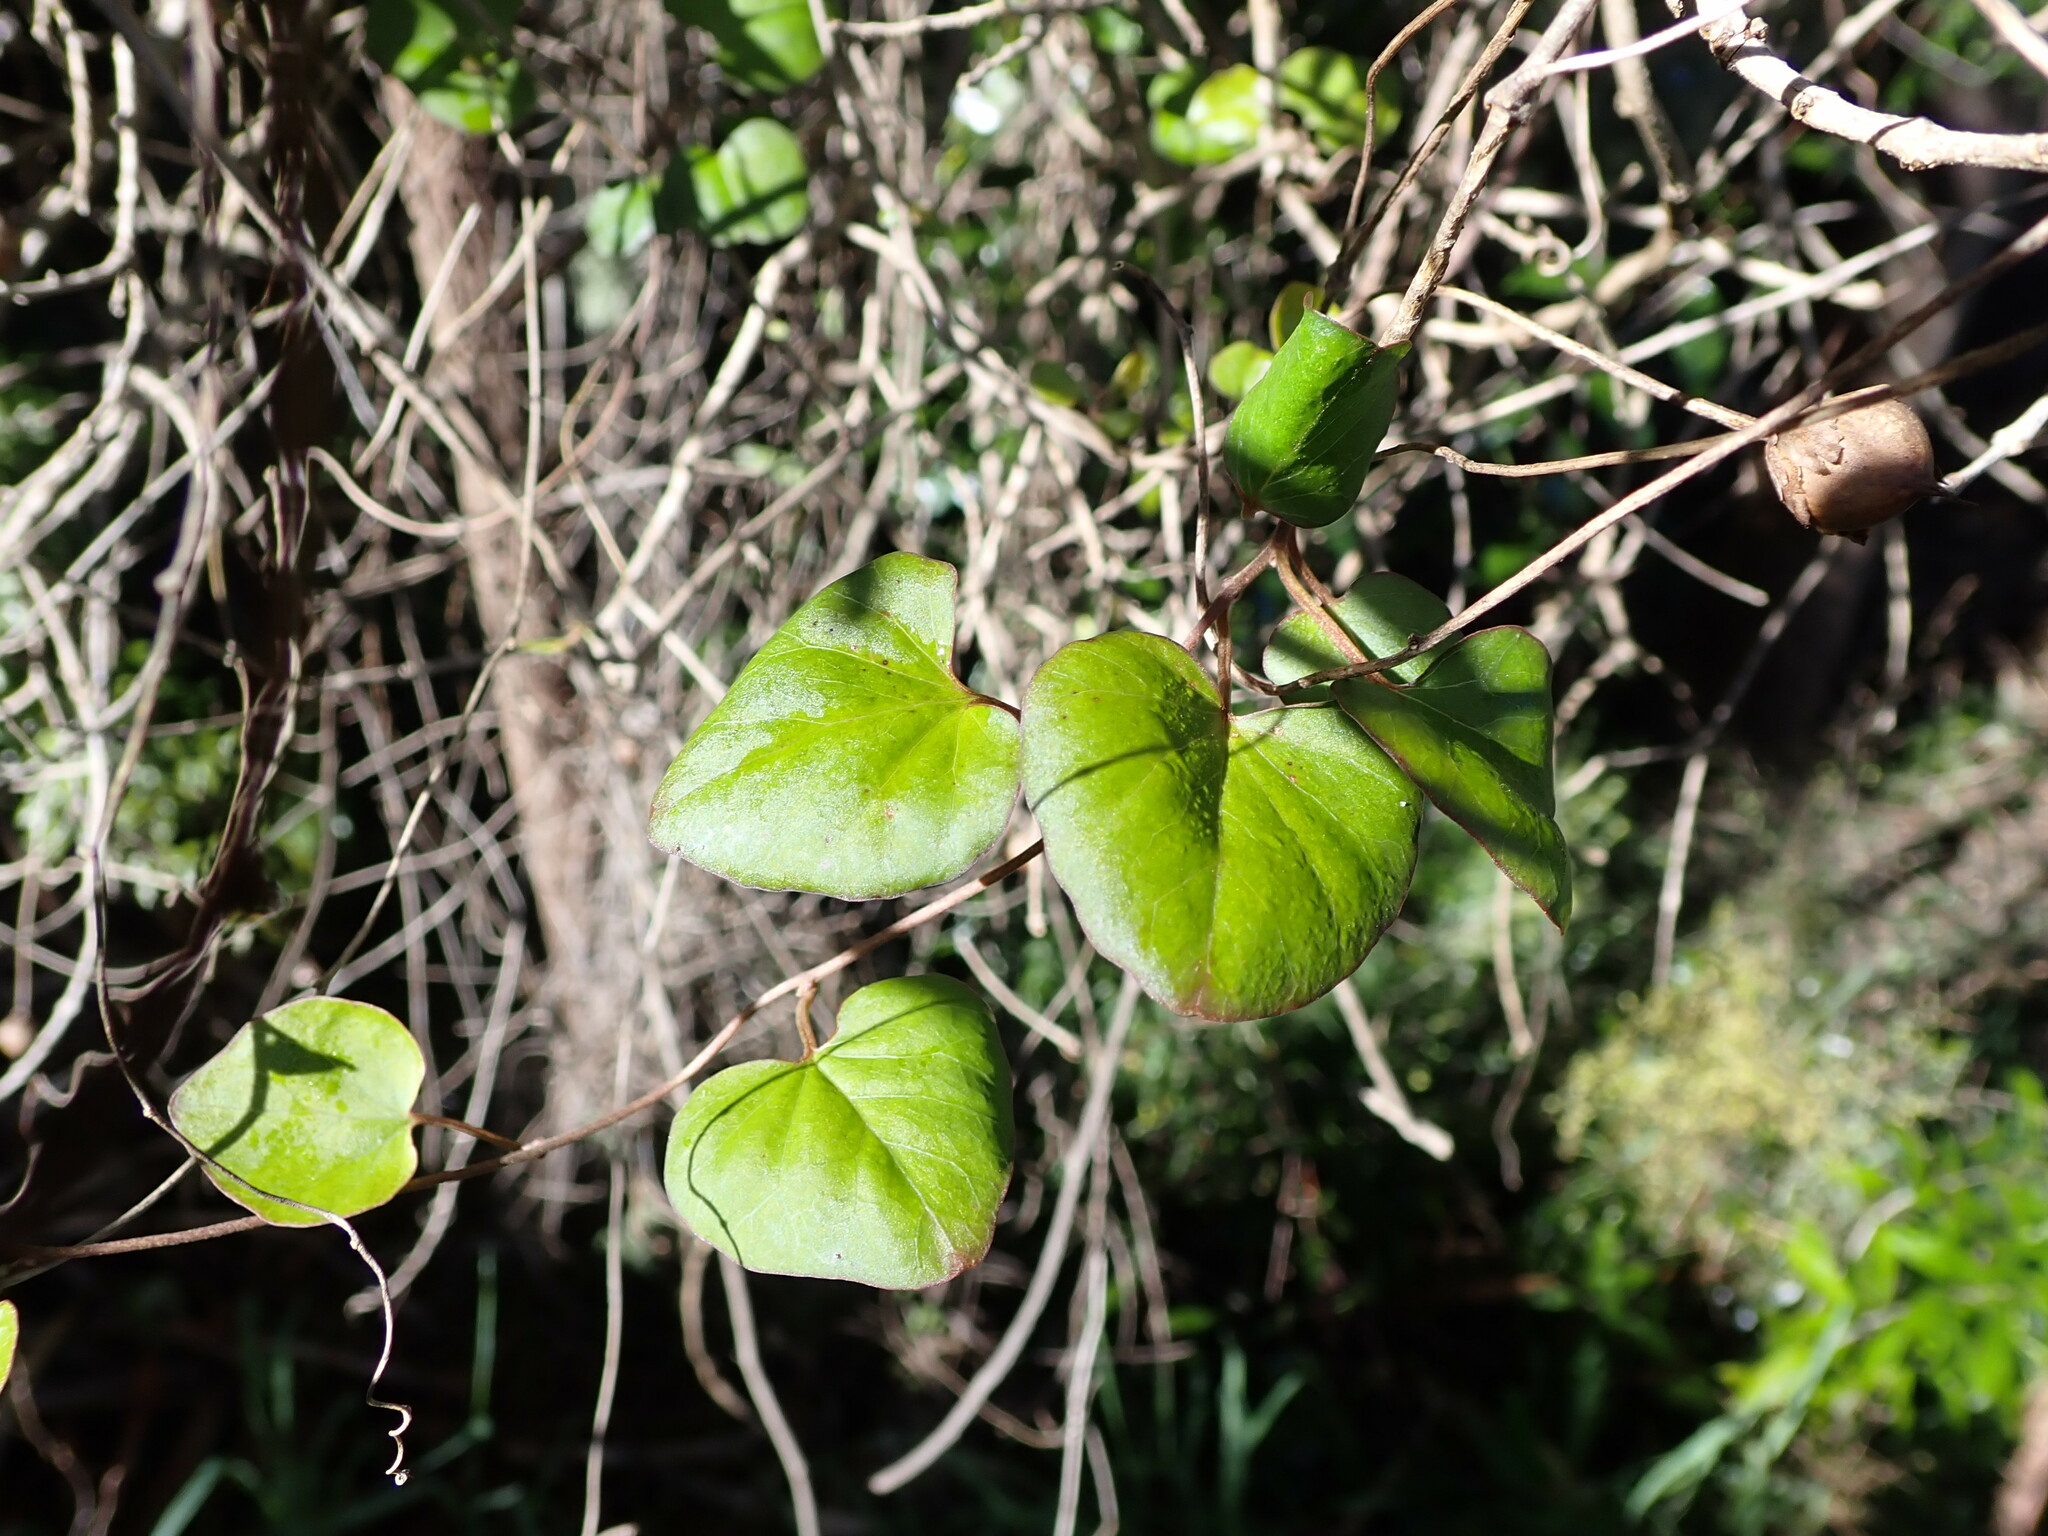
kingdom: Plantae
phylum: Tracheophyta
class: Magnoliopsida
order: Solanales
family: Convolvulaceae
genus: Calystegia
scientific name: Calystegia tuguriorum
